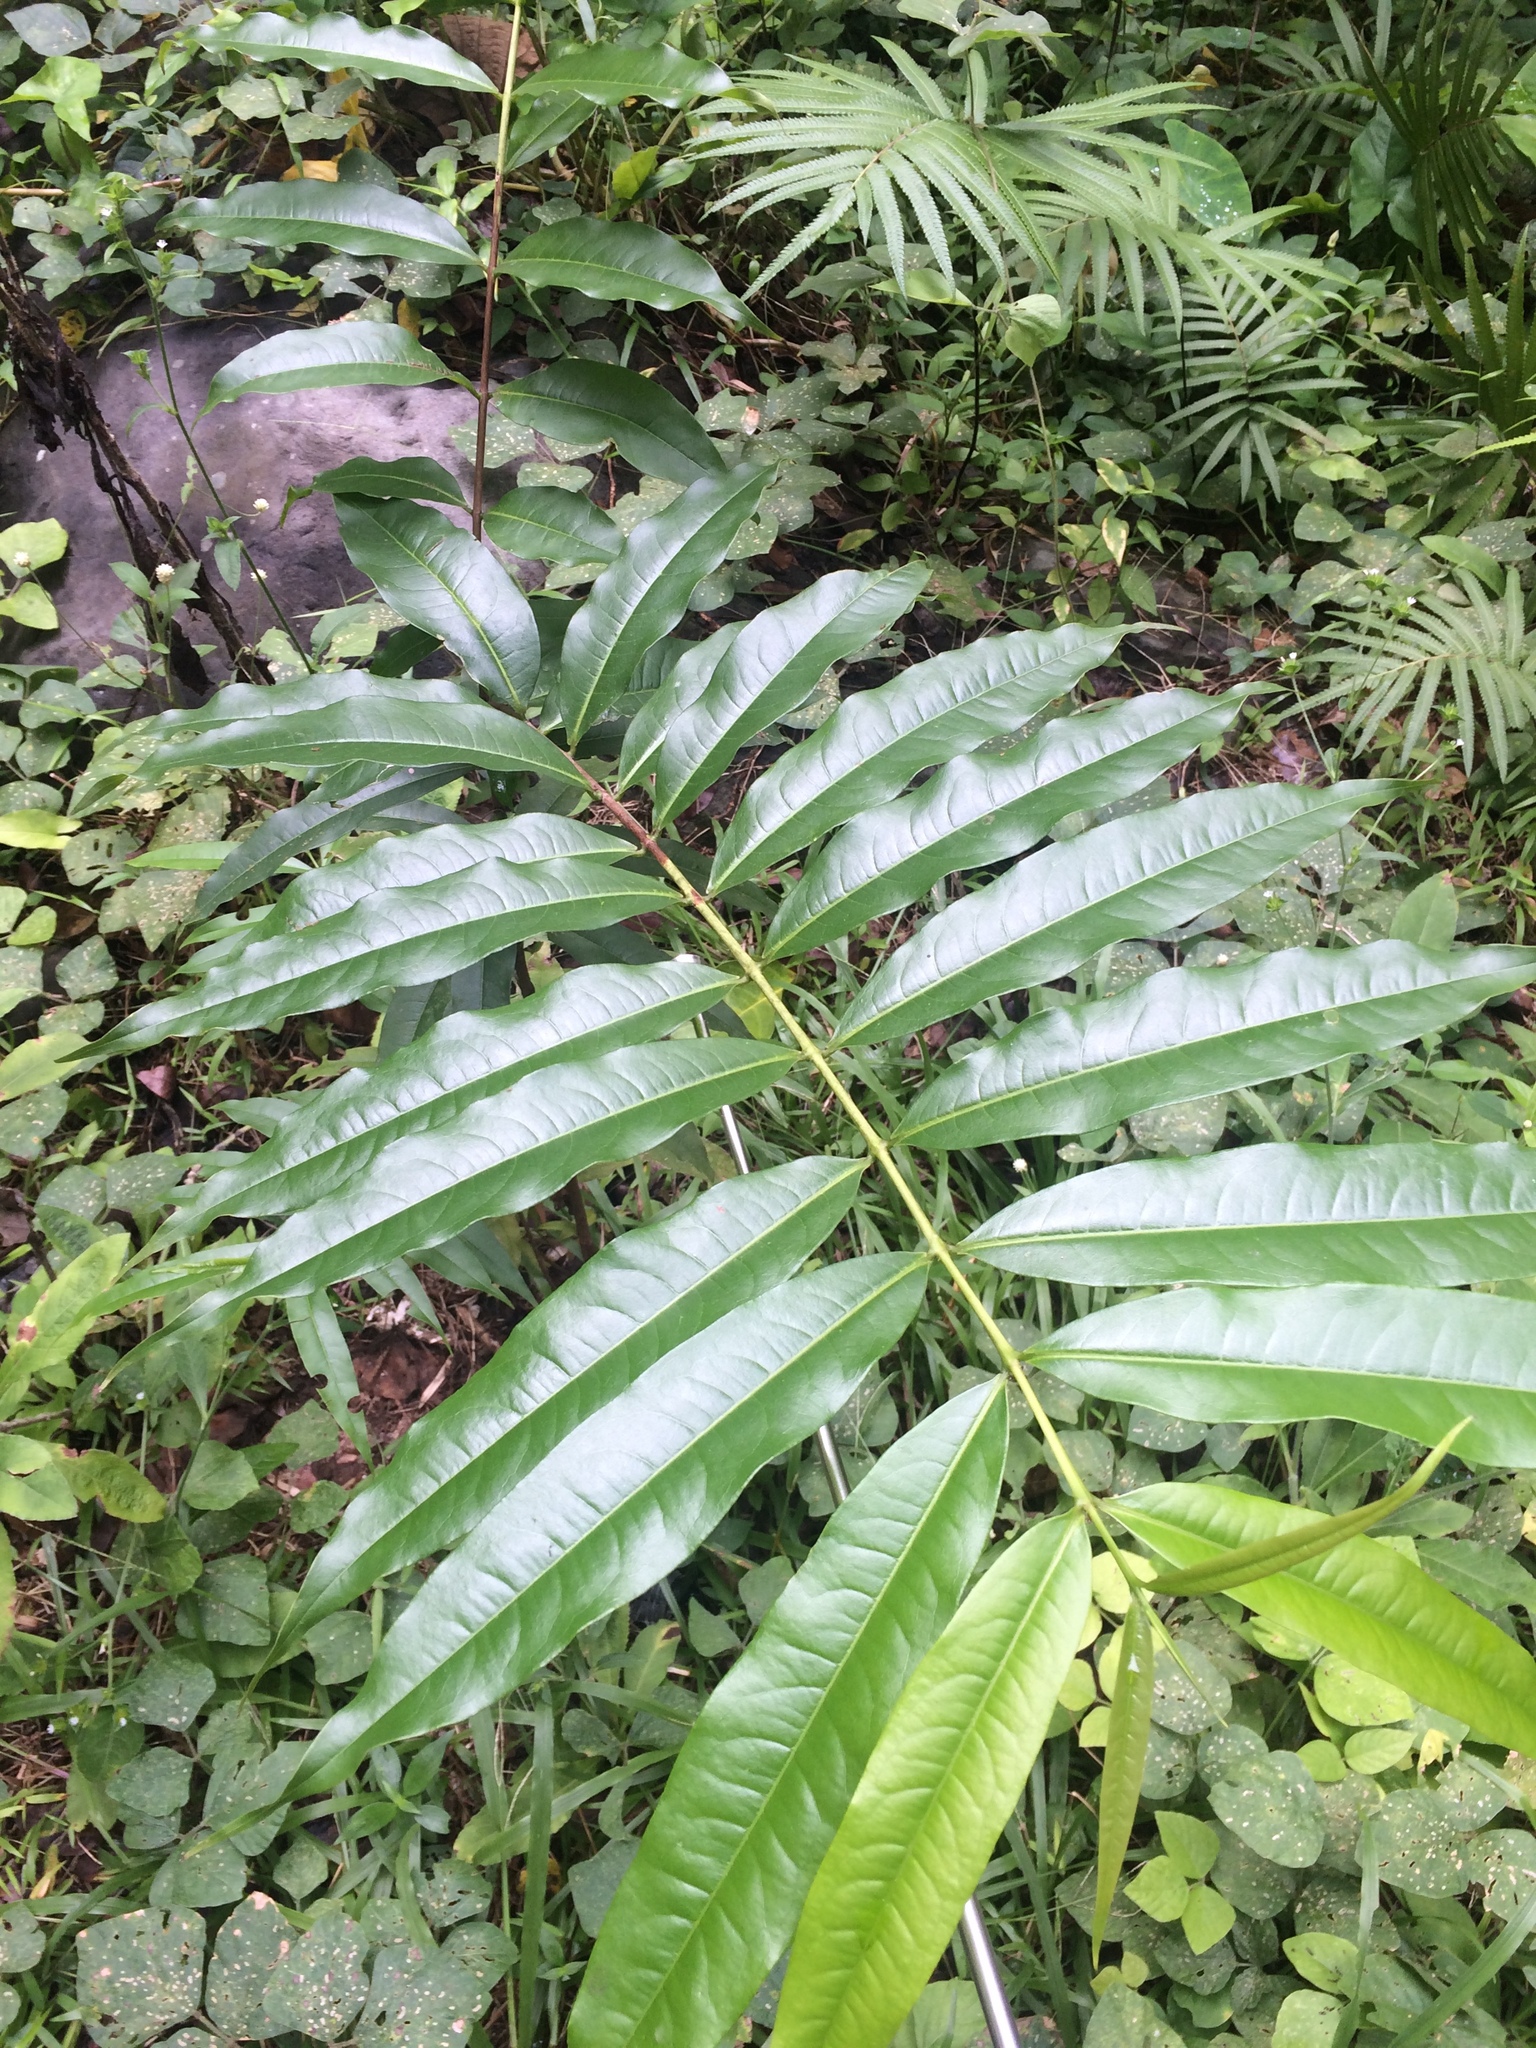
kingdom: Plantae
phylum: Tracheophyta
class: Magnoliopsida
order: Malpighiales
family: Hypericaceae
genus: Cratoxylum
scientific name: Cratoxylum sumatranum
